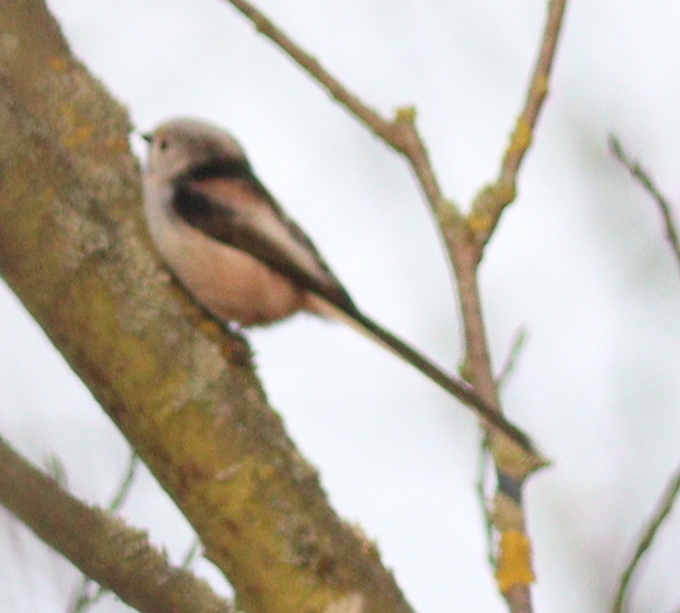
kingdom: Animalia
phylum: Chordata
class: Aves
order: Passeriformes
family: Aegithalidae
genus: Aegithalos
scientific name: Aegithalos caudatus
